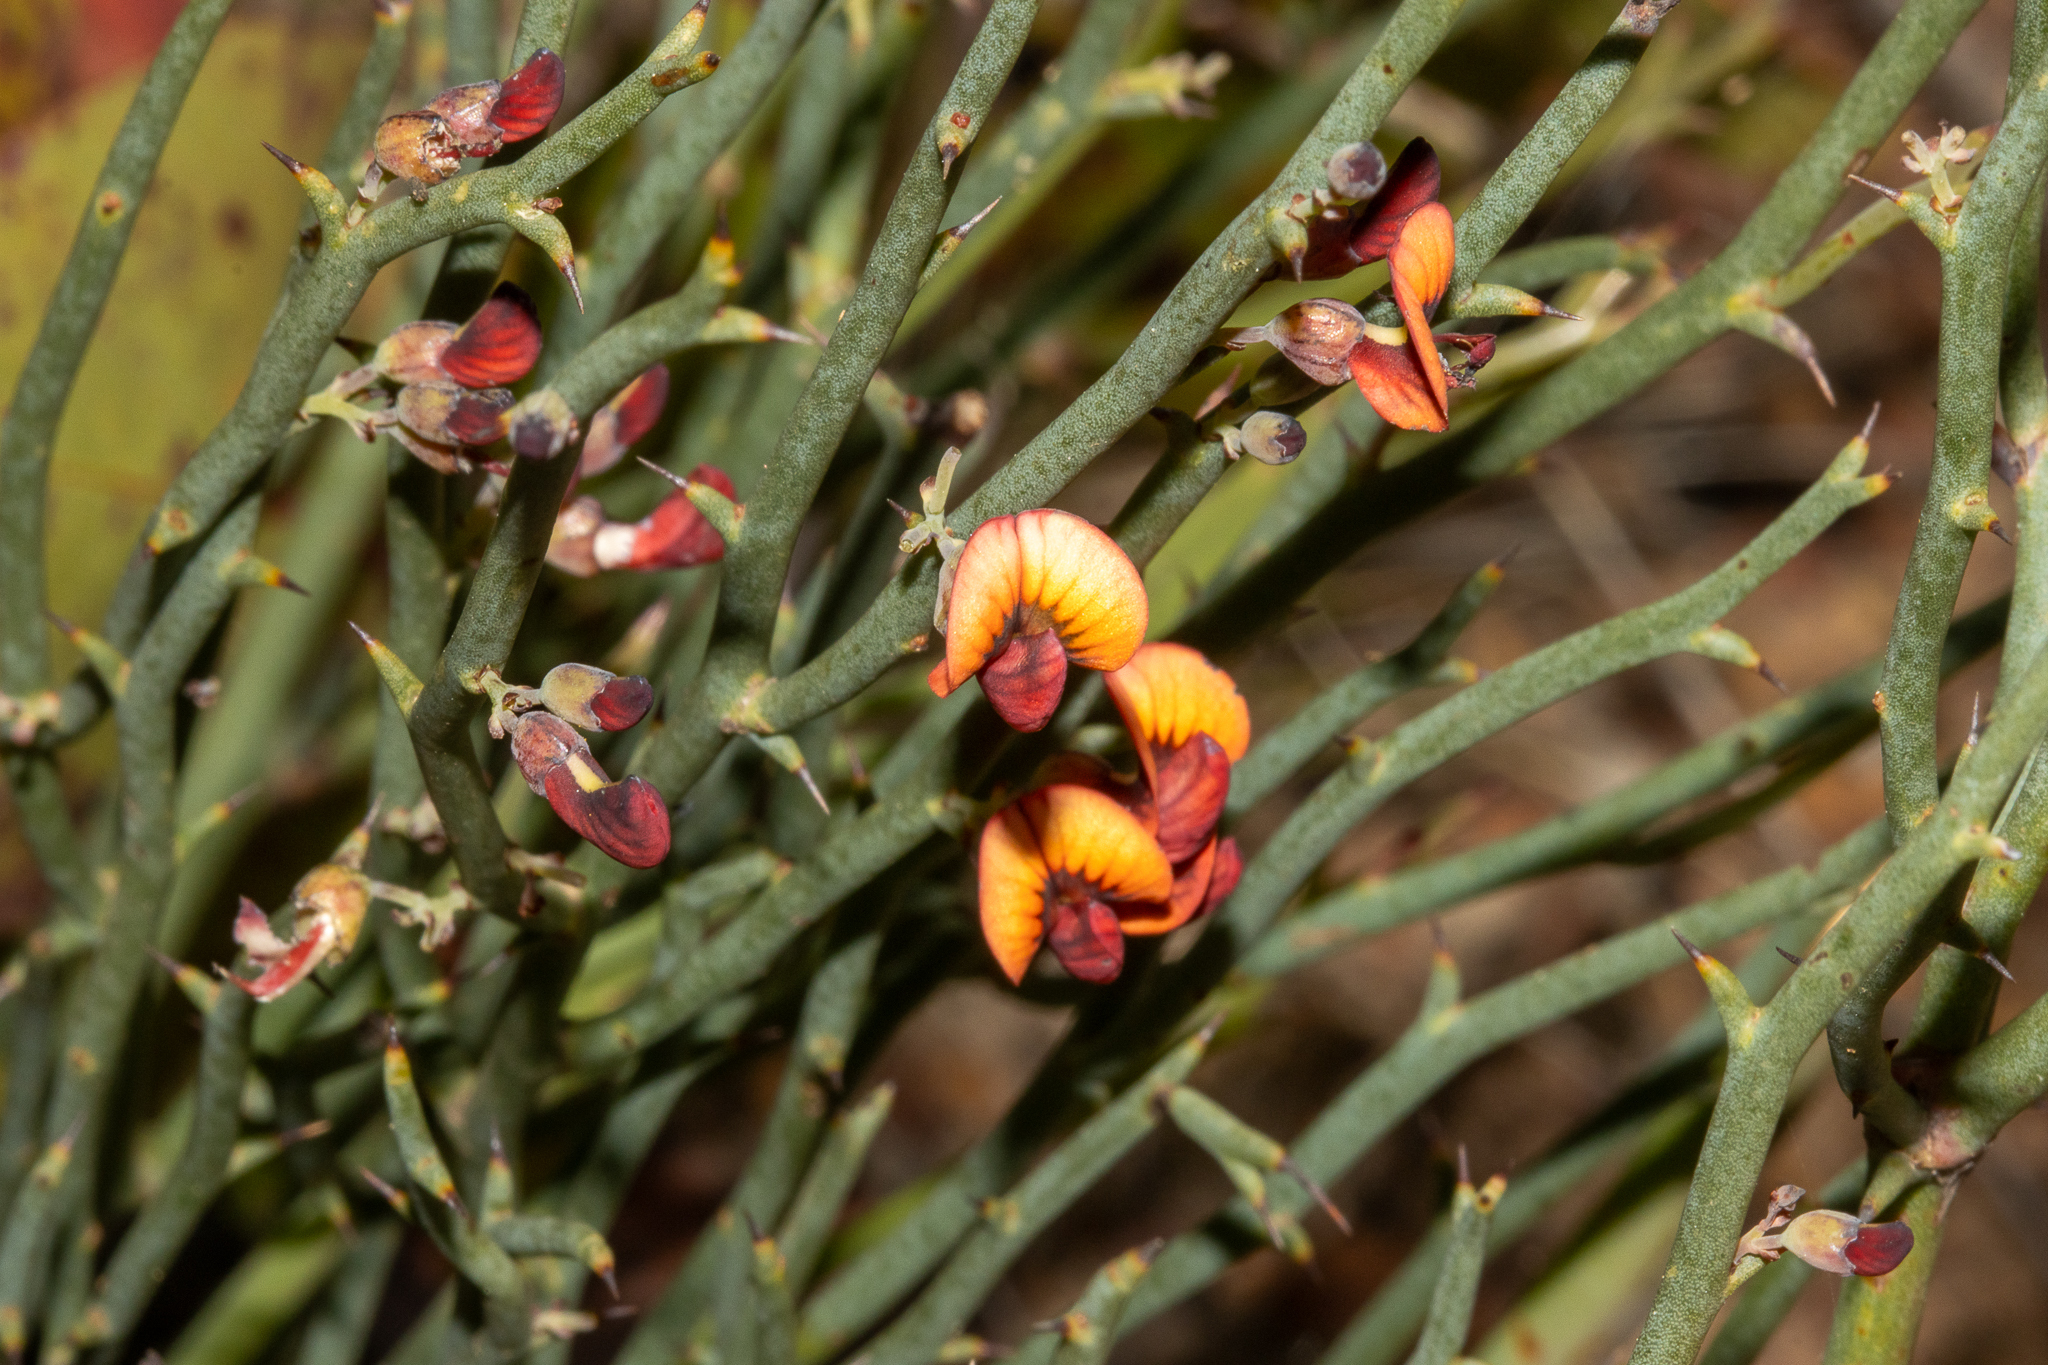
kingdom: Plantae
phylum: Tracheophyta
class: Magnoliopsida
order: Fabales
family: Fabaceae
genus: Daviesia
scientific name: Daviesia brevifolia
